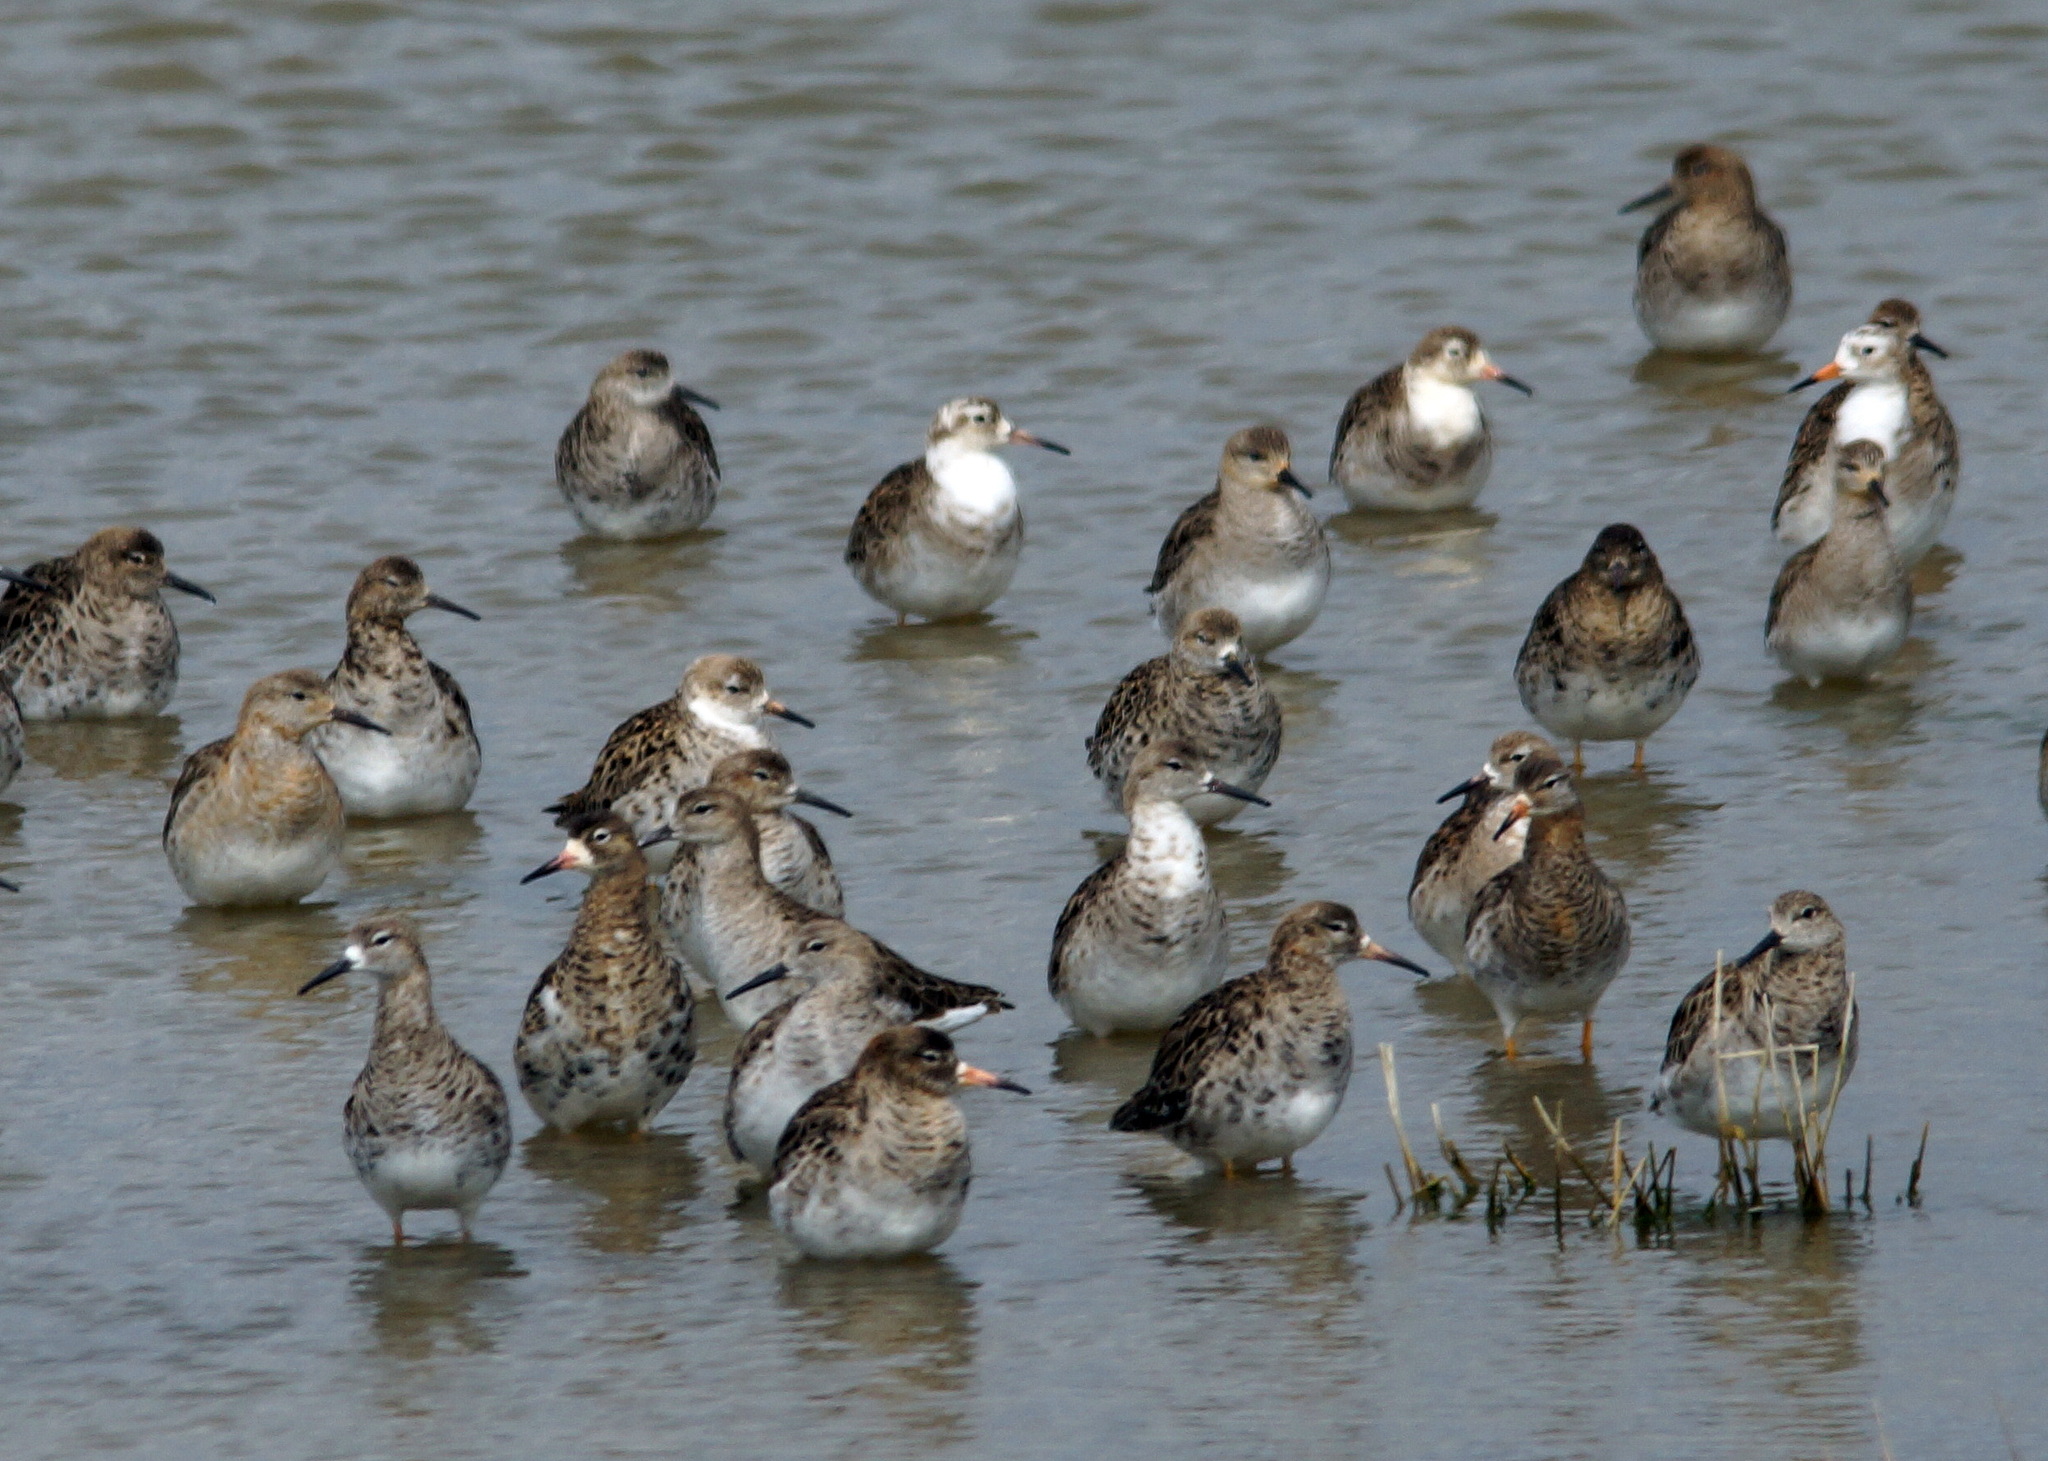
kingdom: Animalia
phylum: Chordata
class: Aves
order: Charadriiformes
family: Scolopacidae
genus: Calidris
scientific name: Calidris pugnax
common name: Ruff
